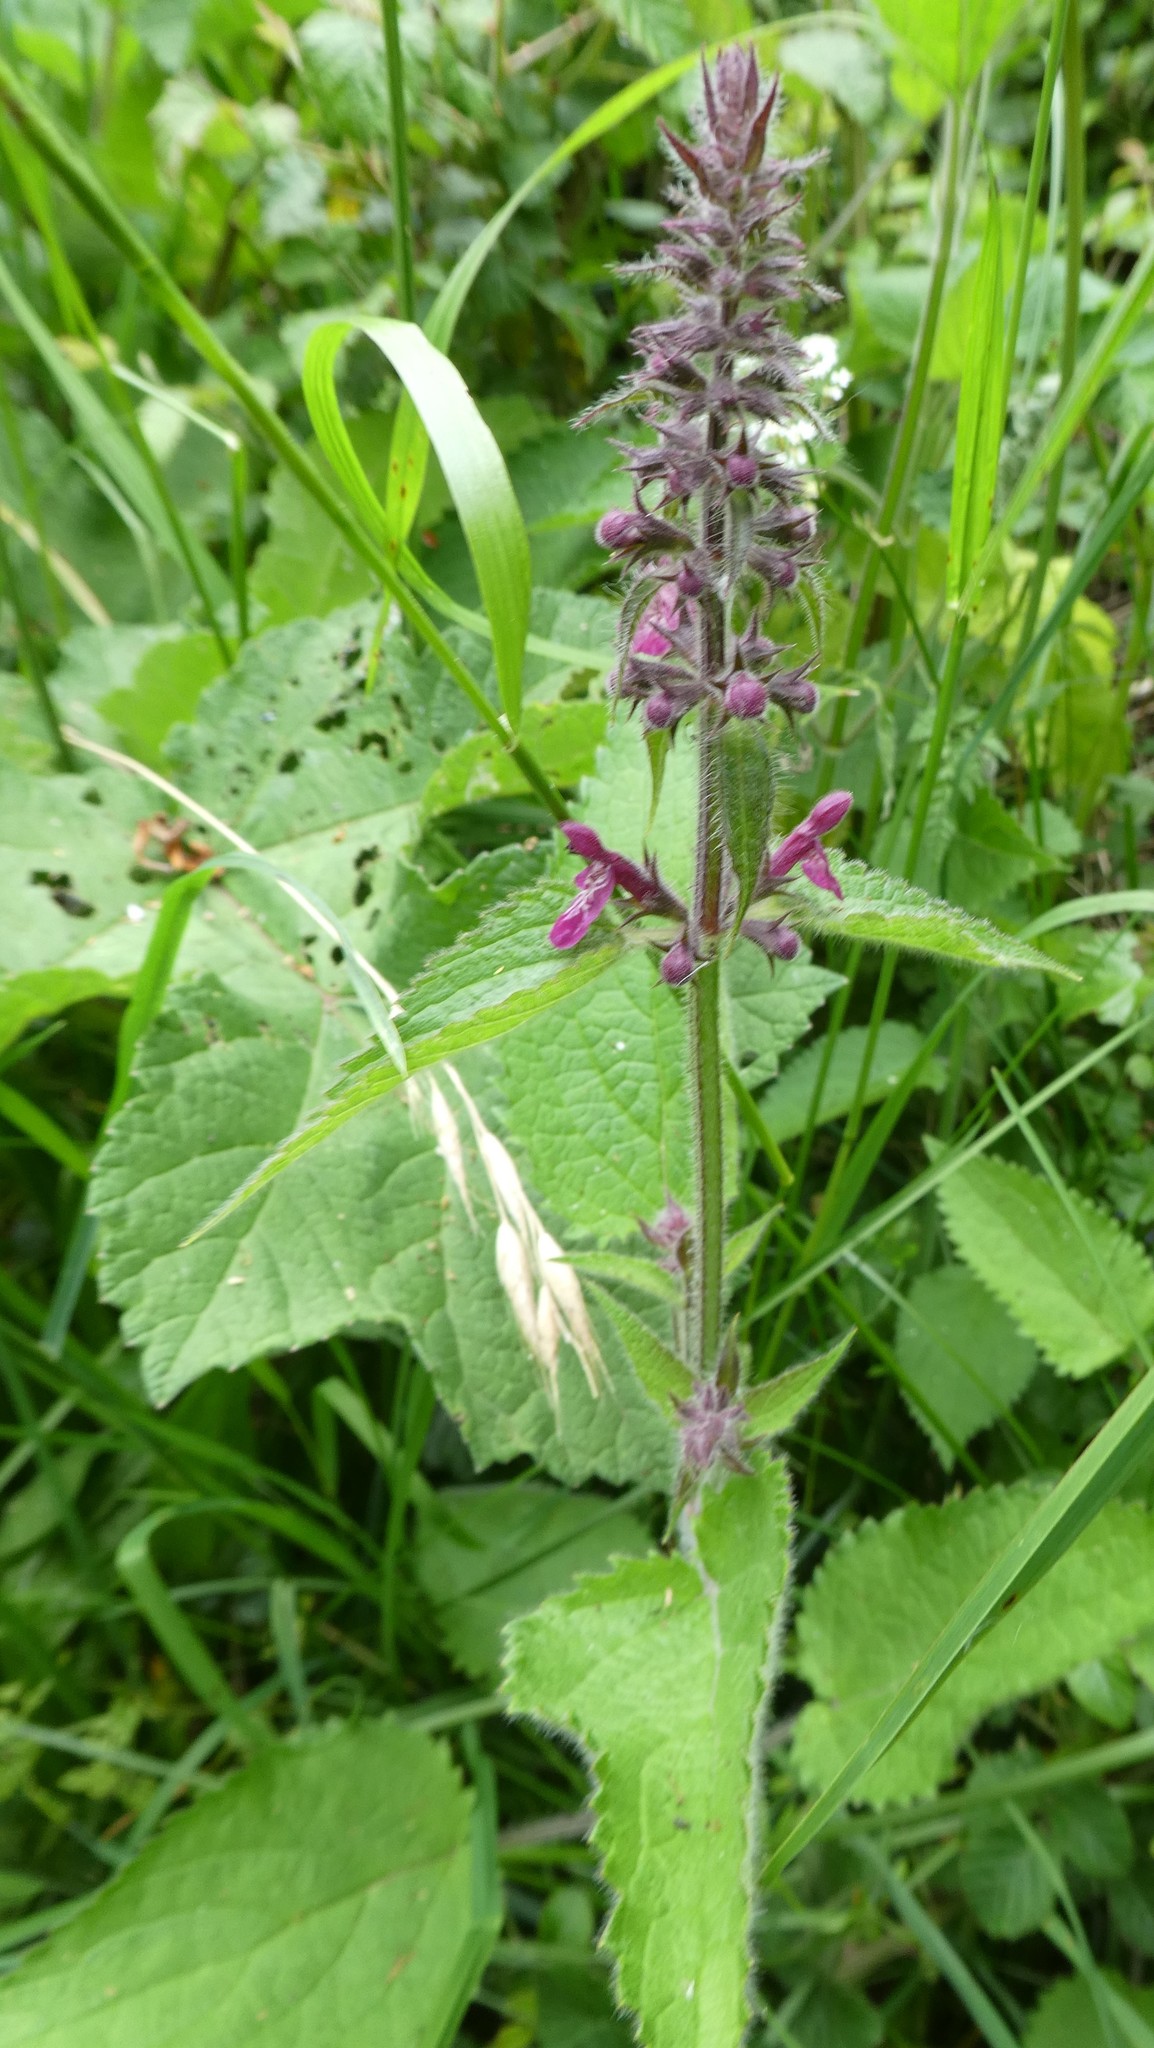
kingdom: Plantae
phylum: Tracheophyta
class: Magnoliopsida
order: Lamiales
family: Lamiaceae
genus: Stachys
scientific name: Stachys sylvatica
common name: Hedge woundwort
